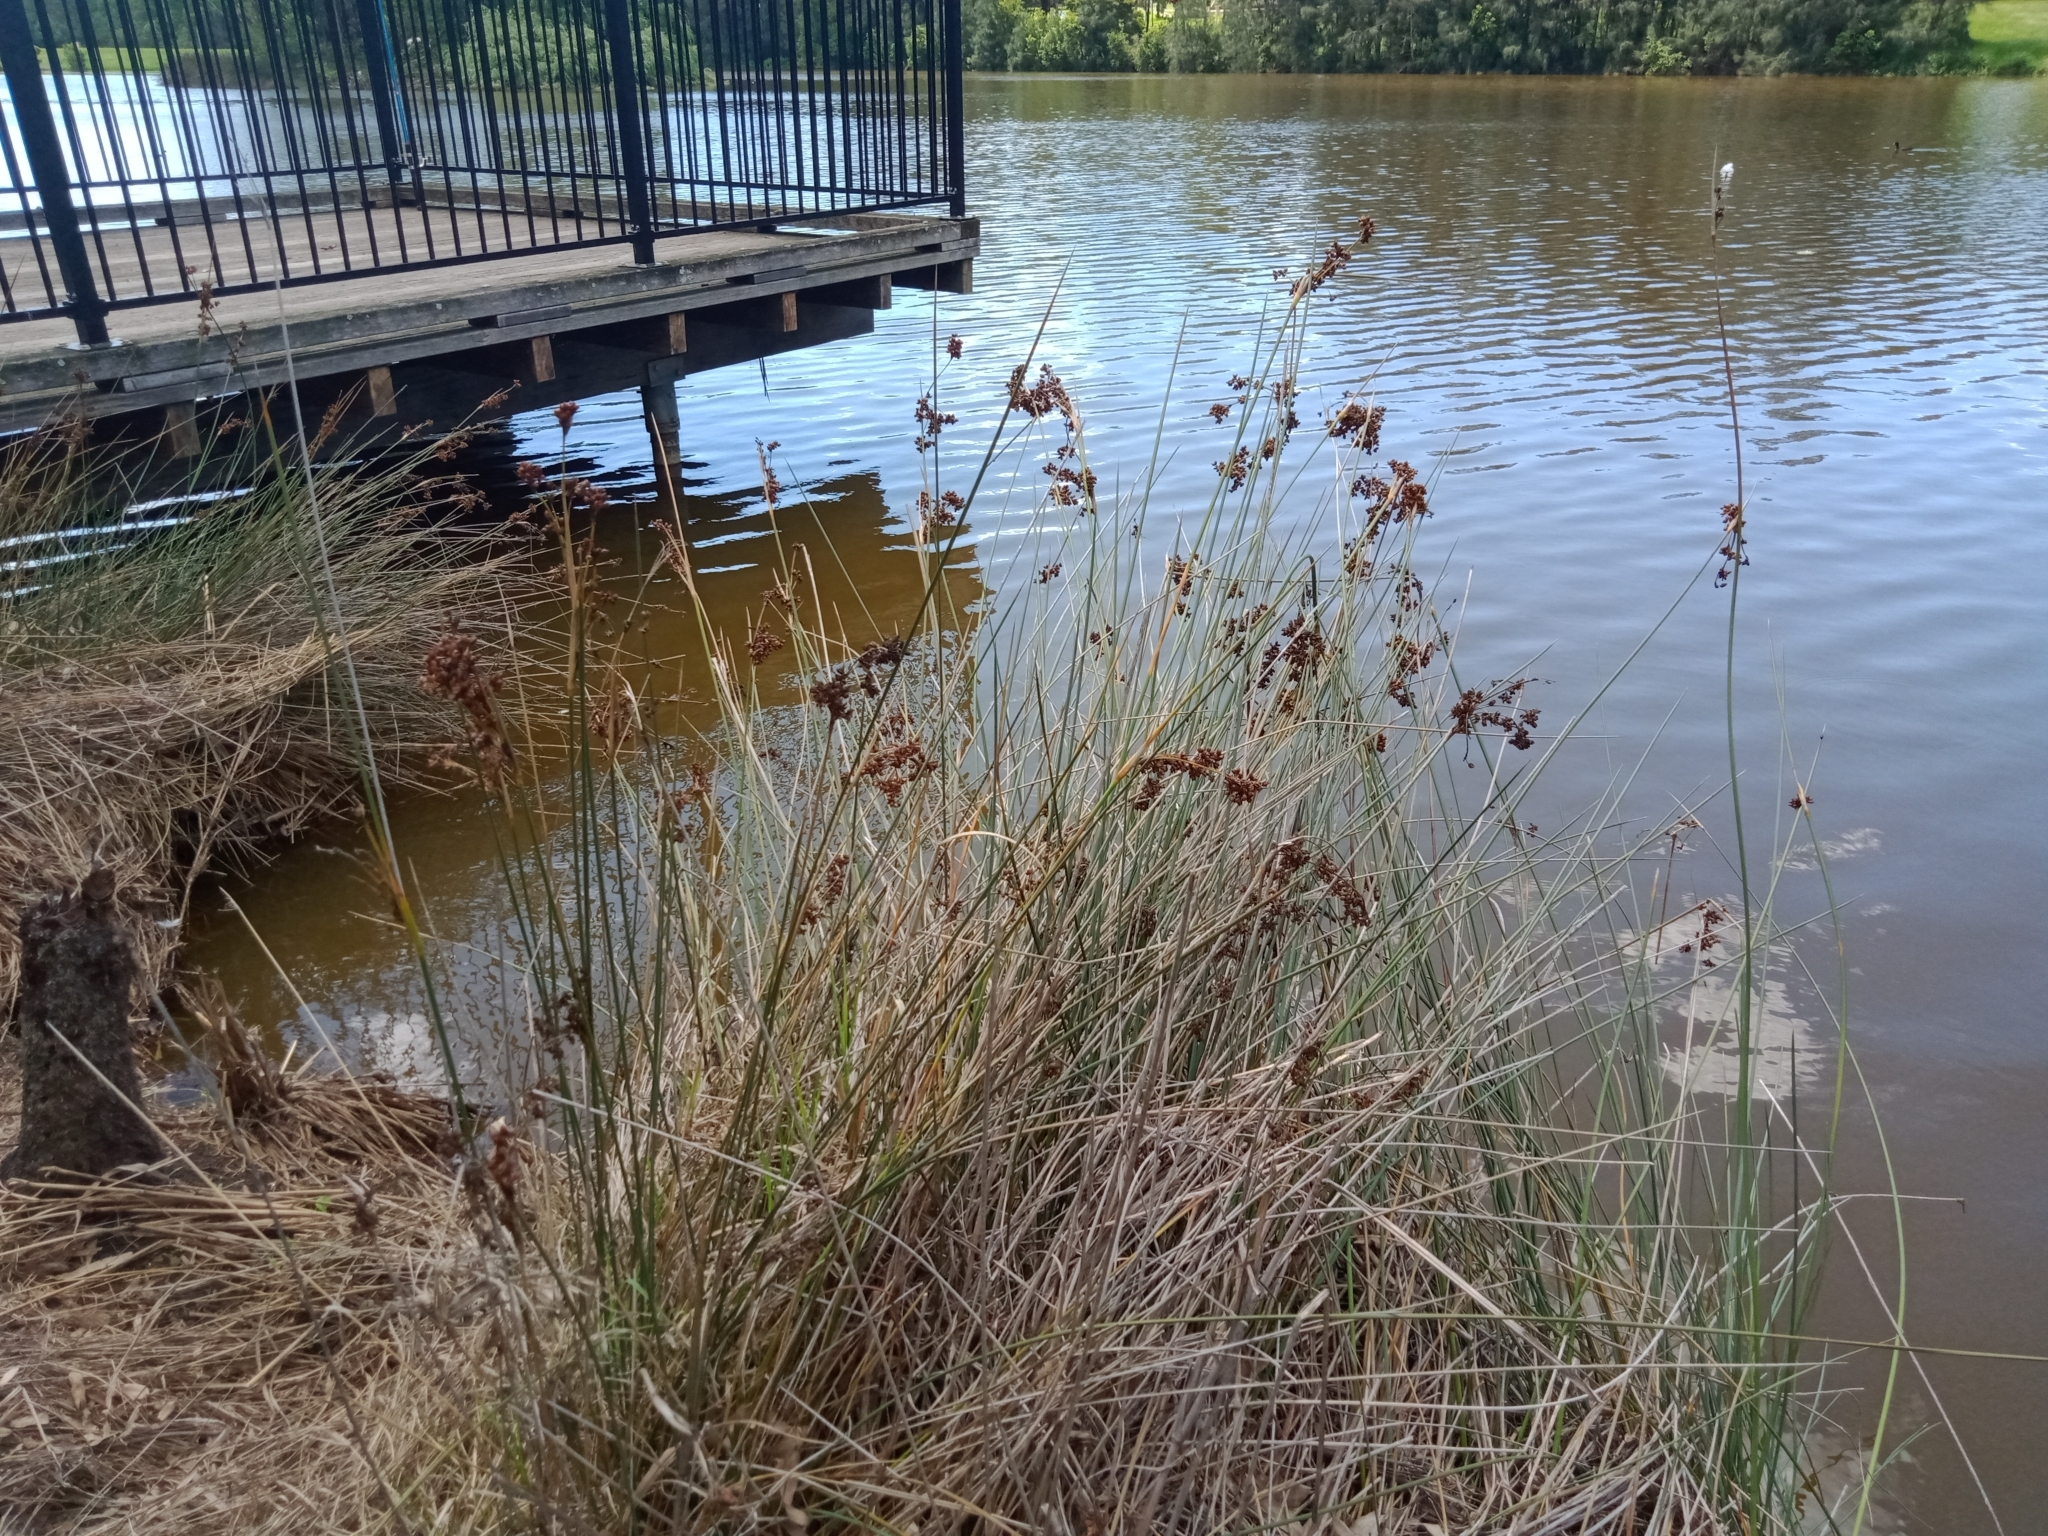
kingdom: Plantae
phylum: Tracheophyta
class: Liliopsida
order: Poales
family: Juncaceae
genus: Juncus
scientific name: Juncus acutus
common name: Sharp rush
